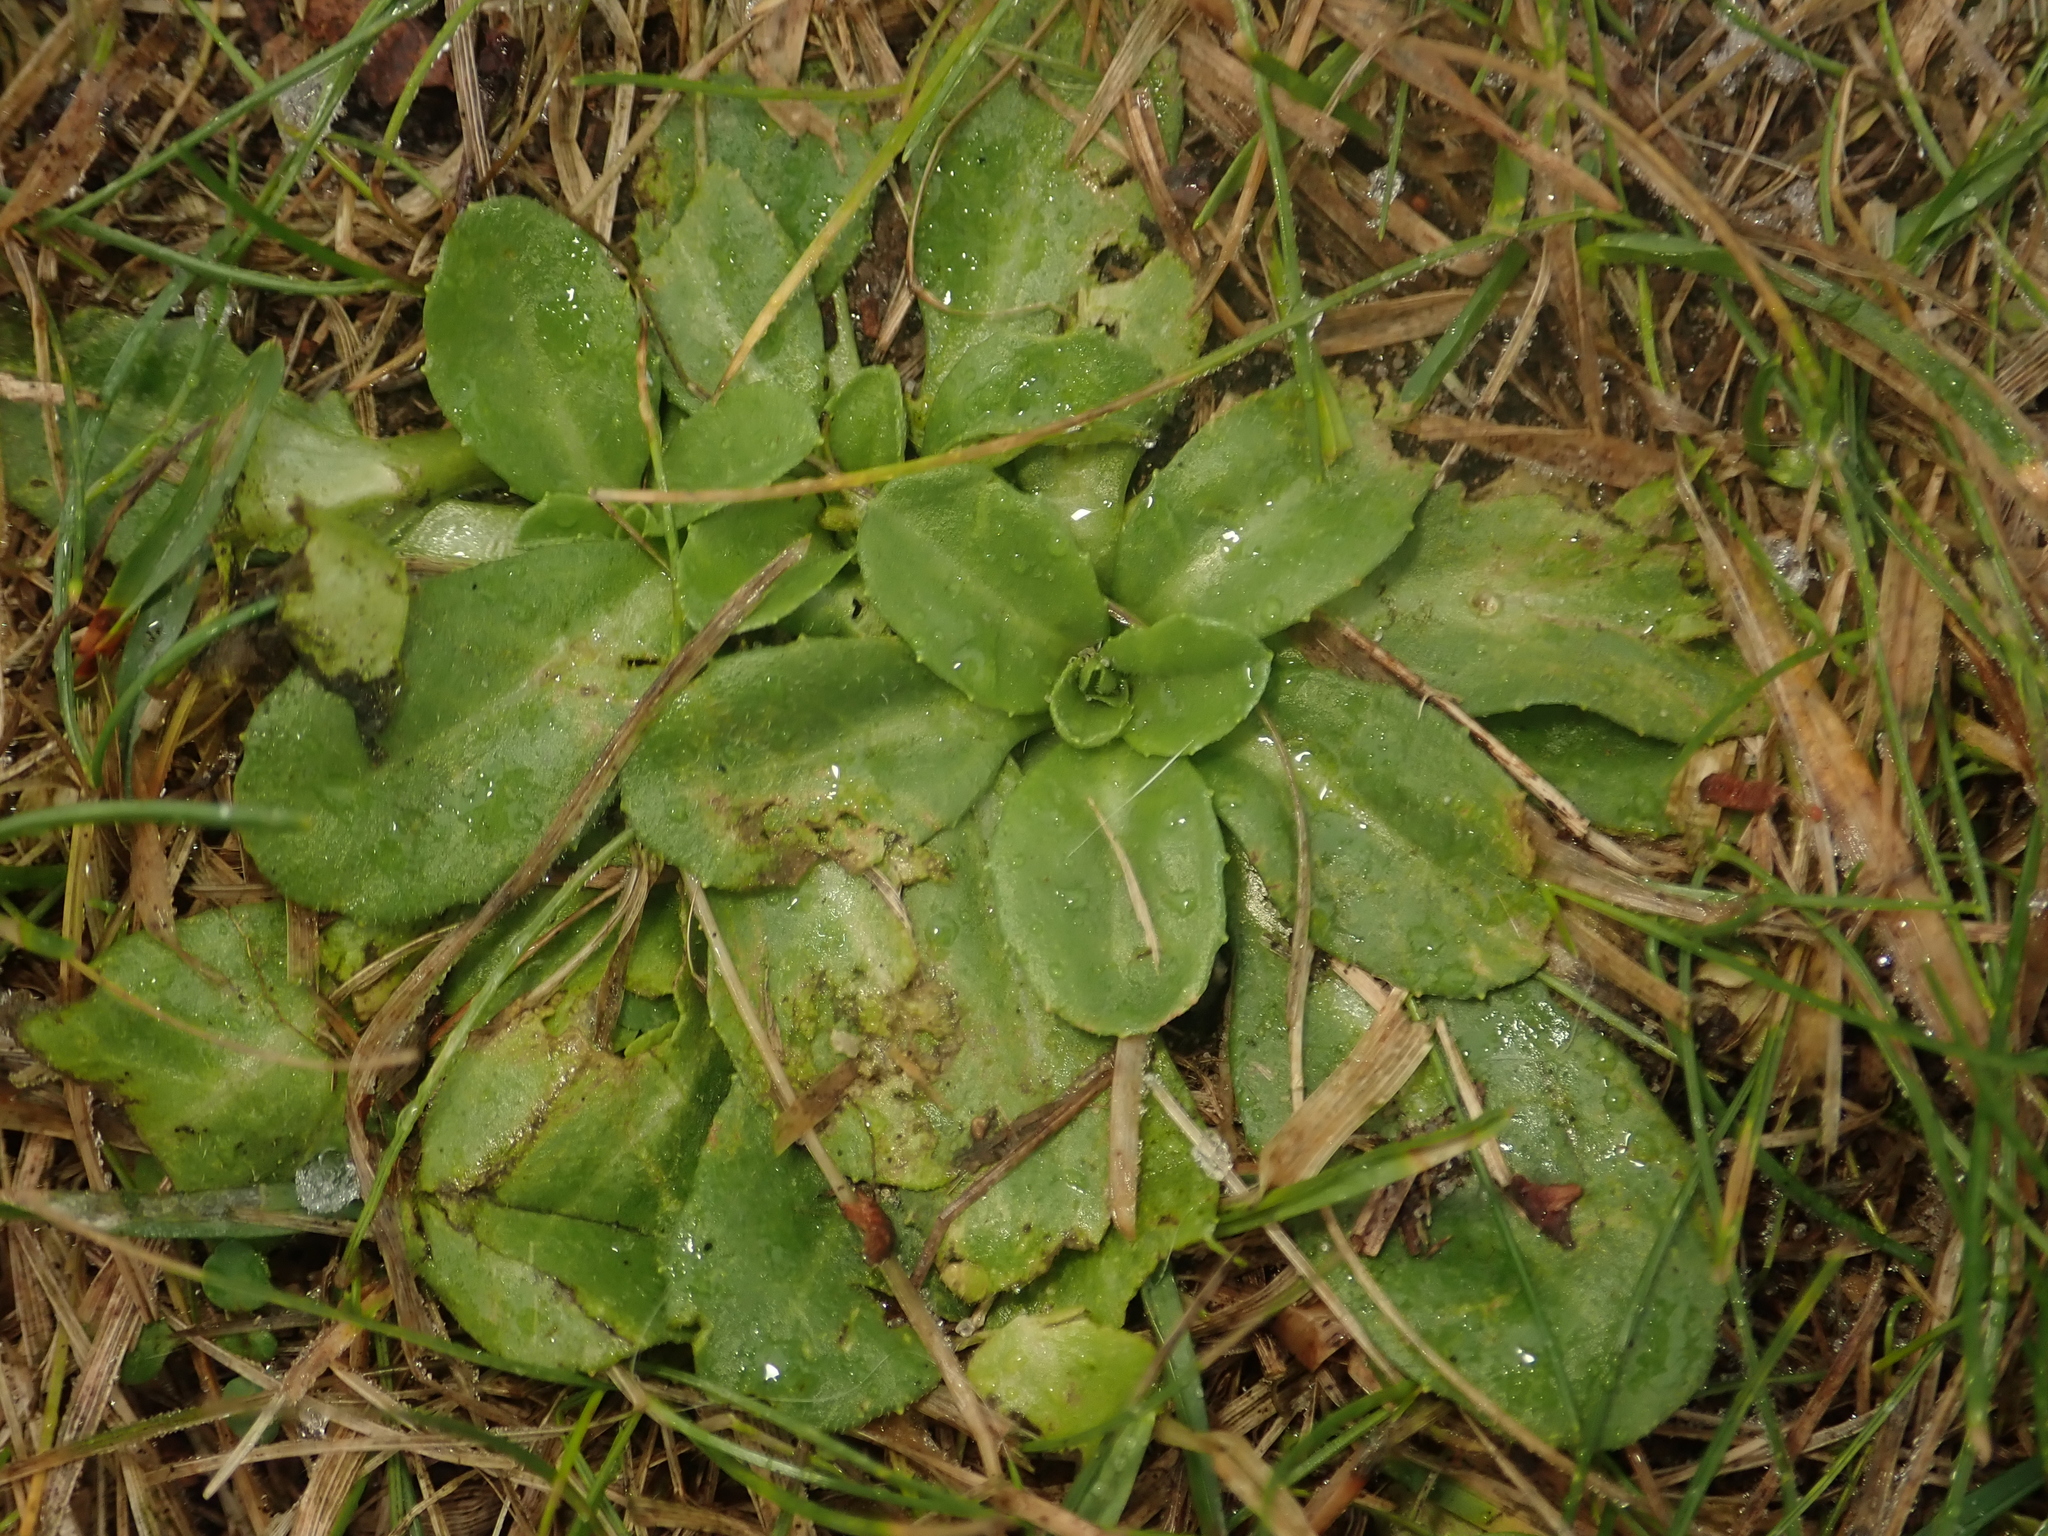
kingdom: Plantae
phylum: Tracheophyta
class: Magnoliopsida
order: Asterales
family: Asteraceae
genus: Bellis
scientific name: Bellis perennis
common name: Lawndaisy
